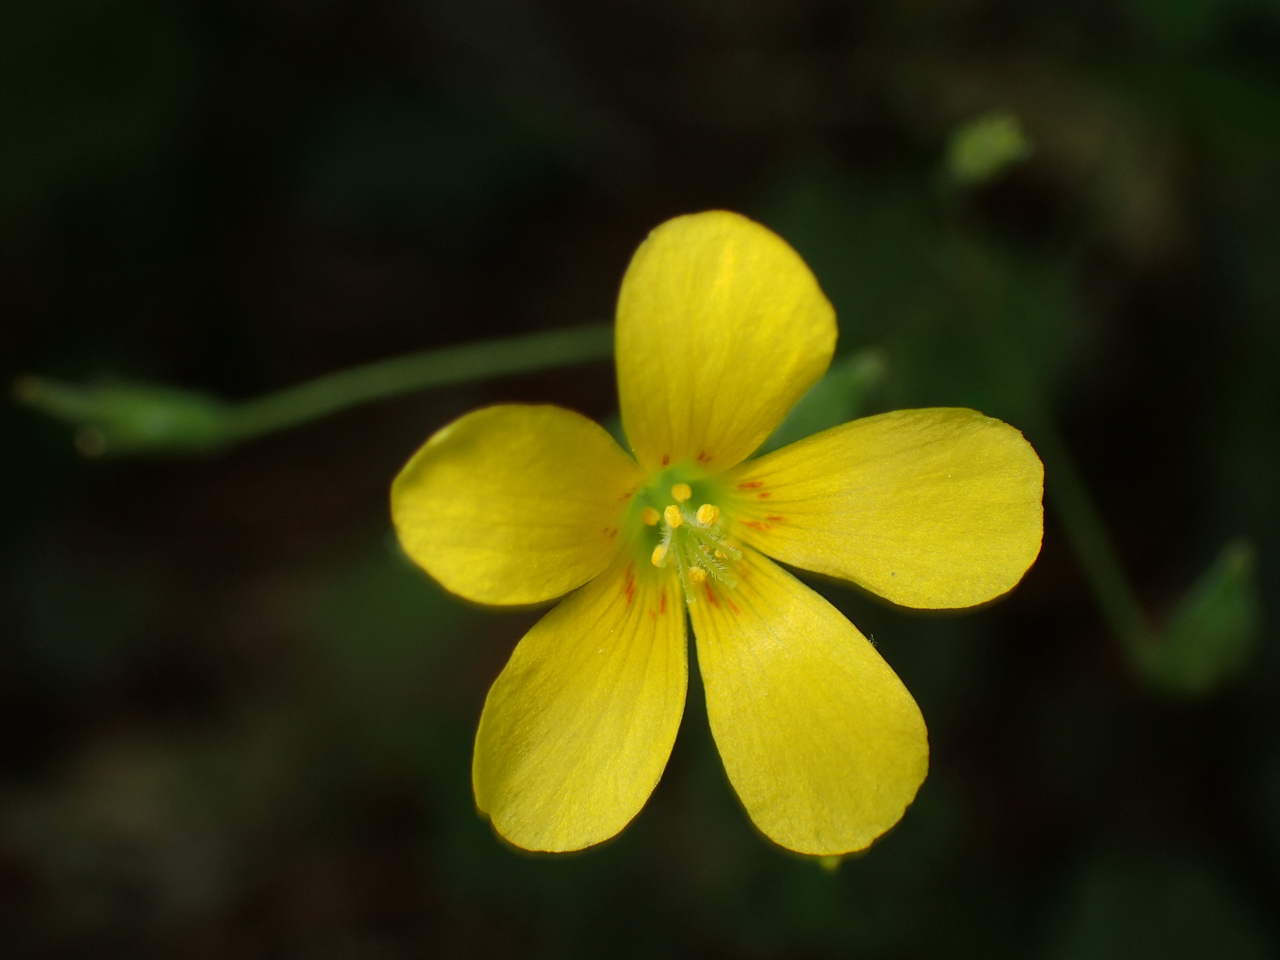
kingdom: Plantae
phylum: Tracheophyta
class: Magnoliopsida
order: Oxalidales
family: Oxalidaceae
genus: Oxalis
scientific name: Oxalis corniculata
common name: Procumbent yellow-sorrel
